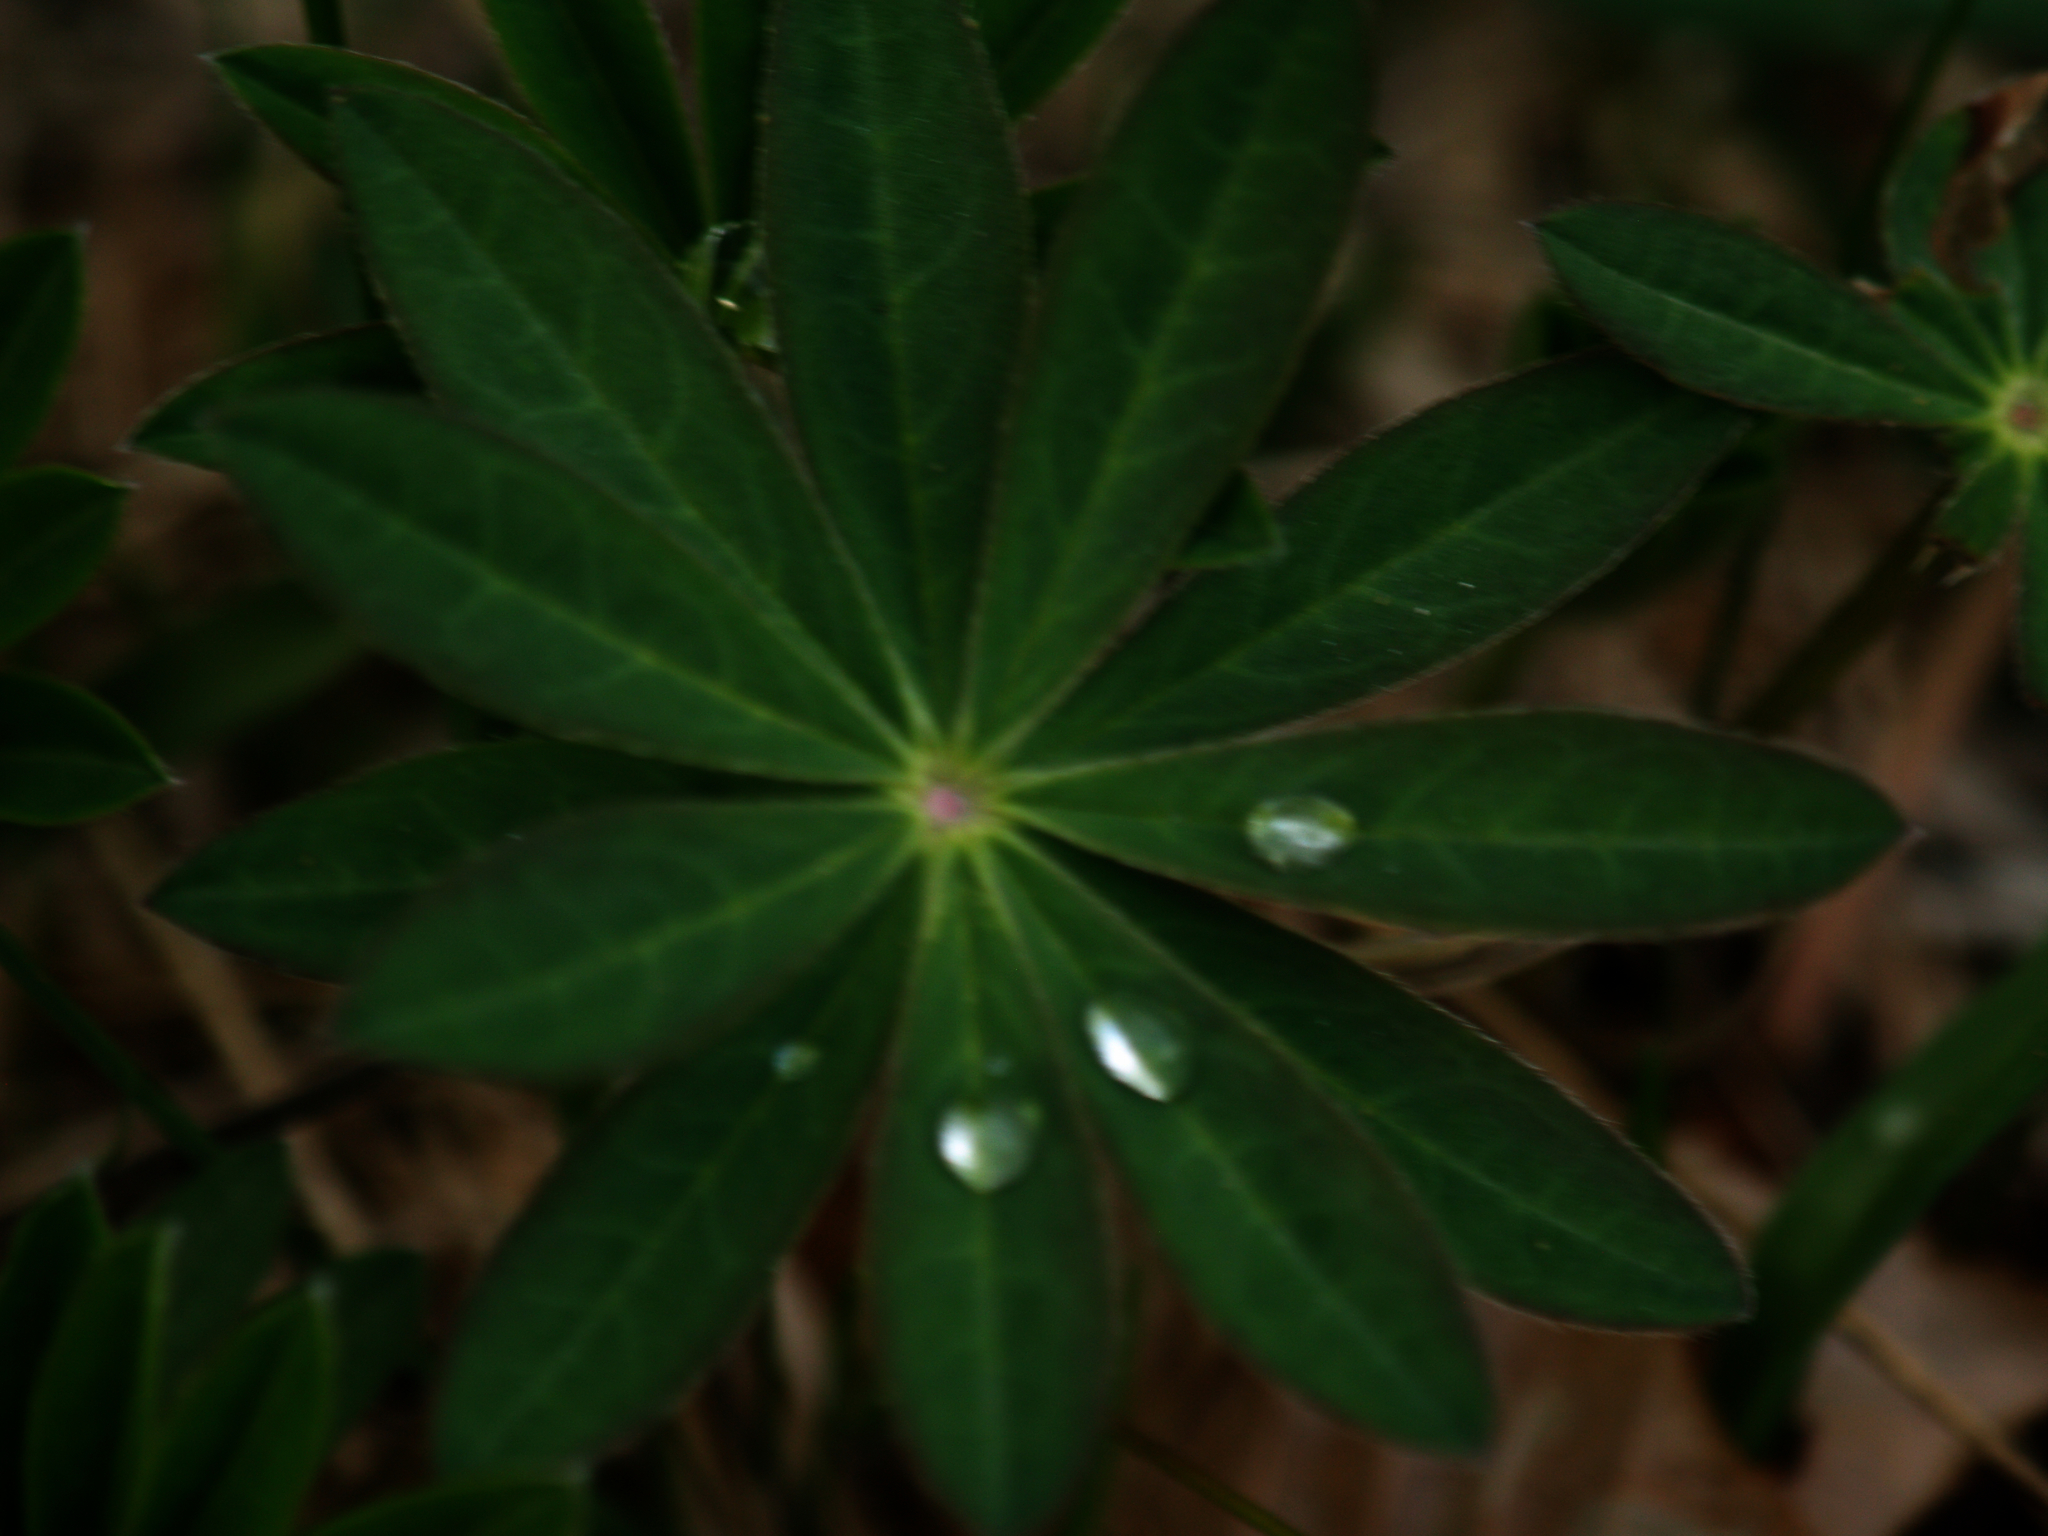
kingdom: Plantae
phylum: Tracheophyta
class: Magnoliopsida
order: Fabales
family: Fabaceae
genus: Lupinus
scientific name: Lupinus polyphyllus
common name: Garden lupin
